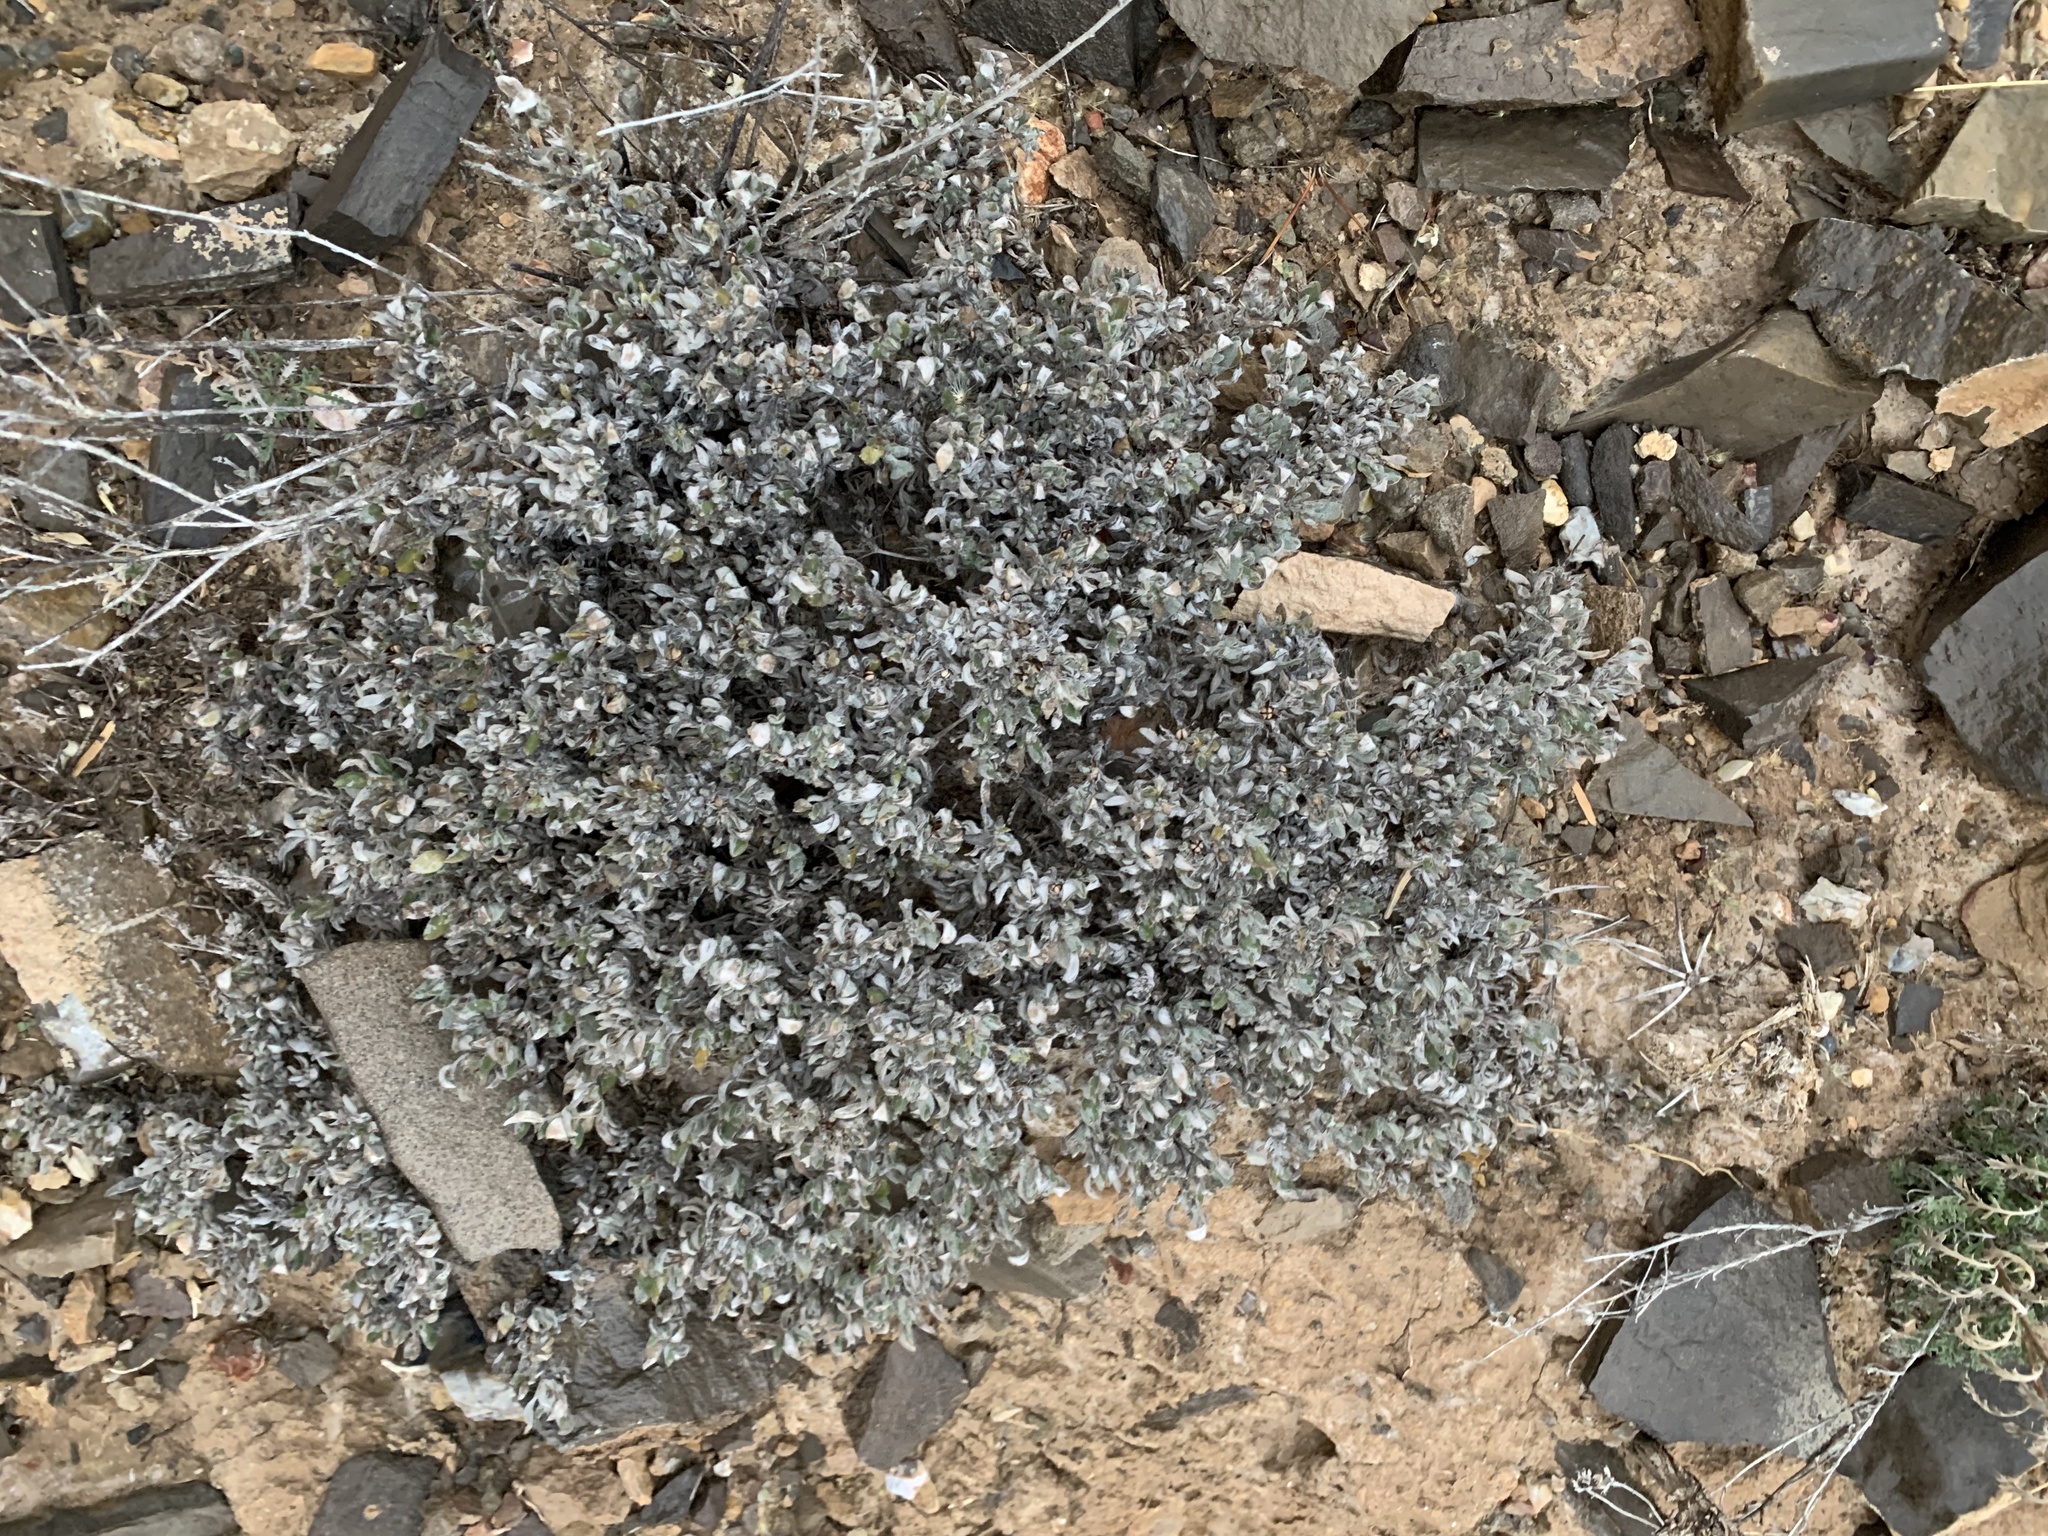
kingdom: Plantae
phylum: Tracheophyta
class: Magnoliopsida
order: Boraginales
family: Ehretiaceae
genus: Tiquilia
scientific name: Tiquilia canescens
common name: Hairy tiquilia
